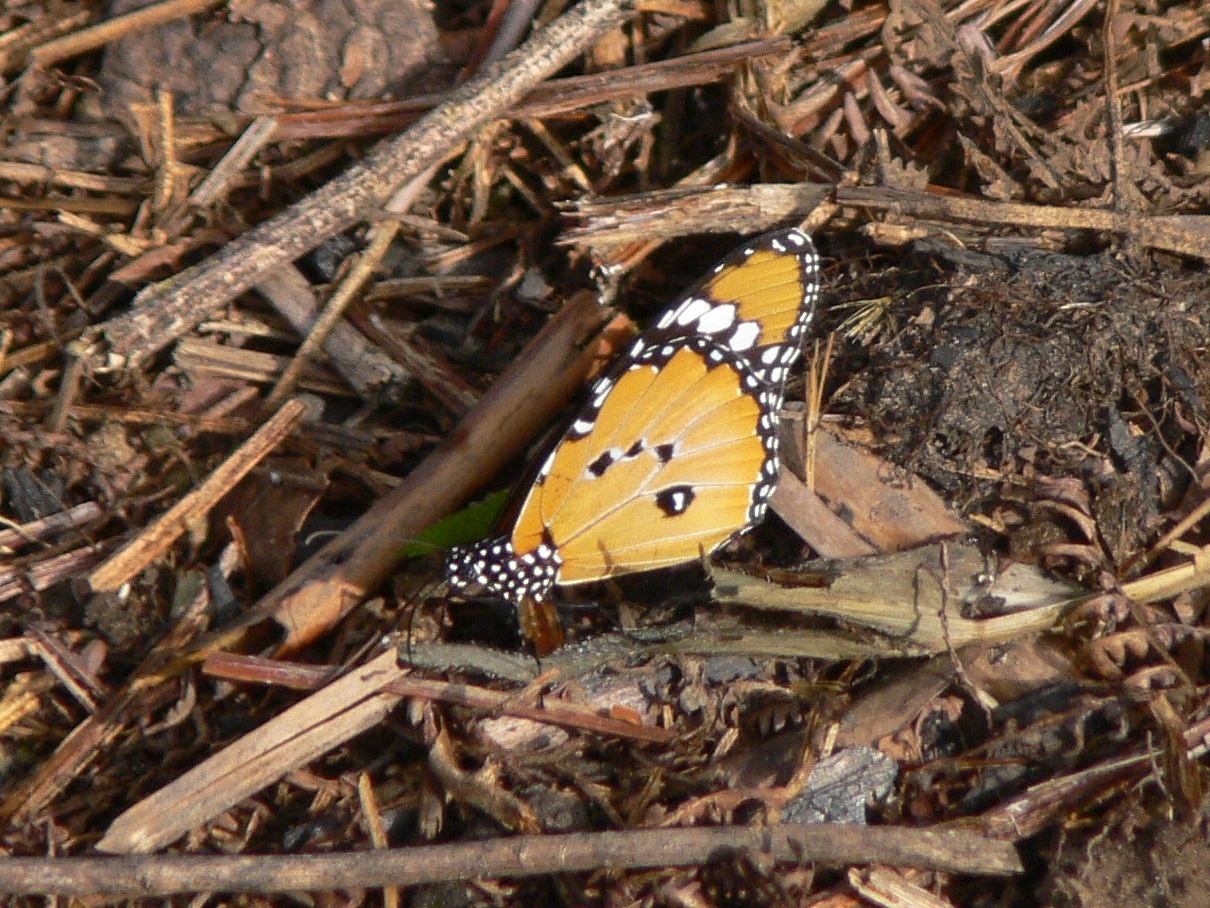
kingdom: Animalia
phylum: Arthropoda
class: Insecta
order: Lepidoptera
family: Nymphalidae
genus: Danaus
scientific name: Danaus chrysippus
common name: Plain tiger
